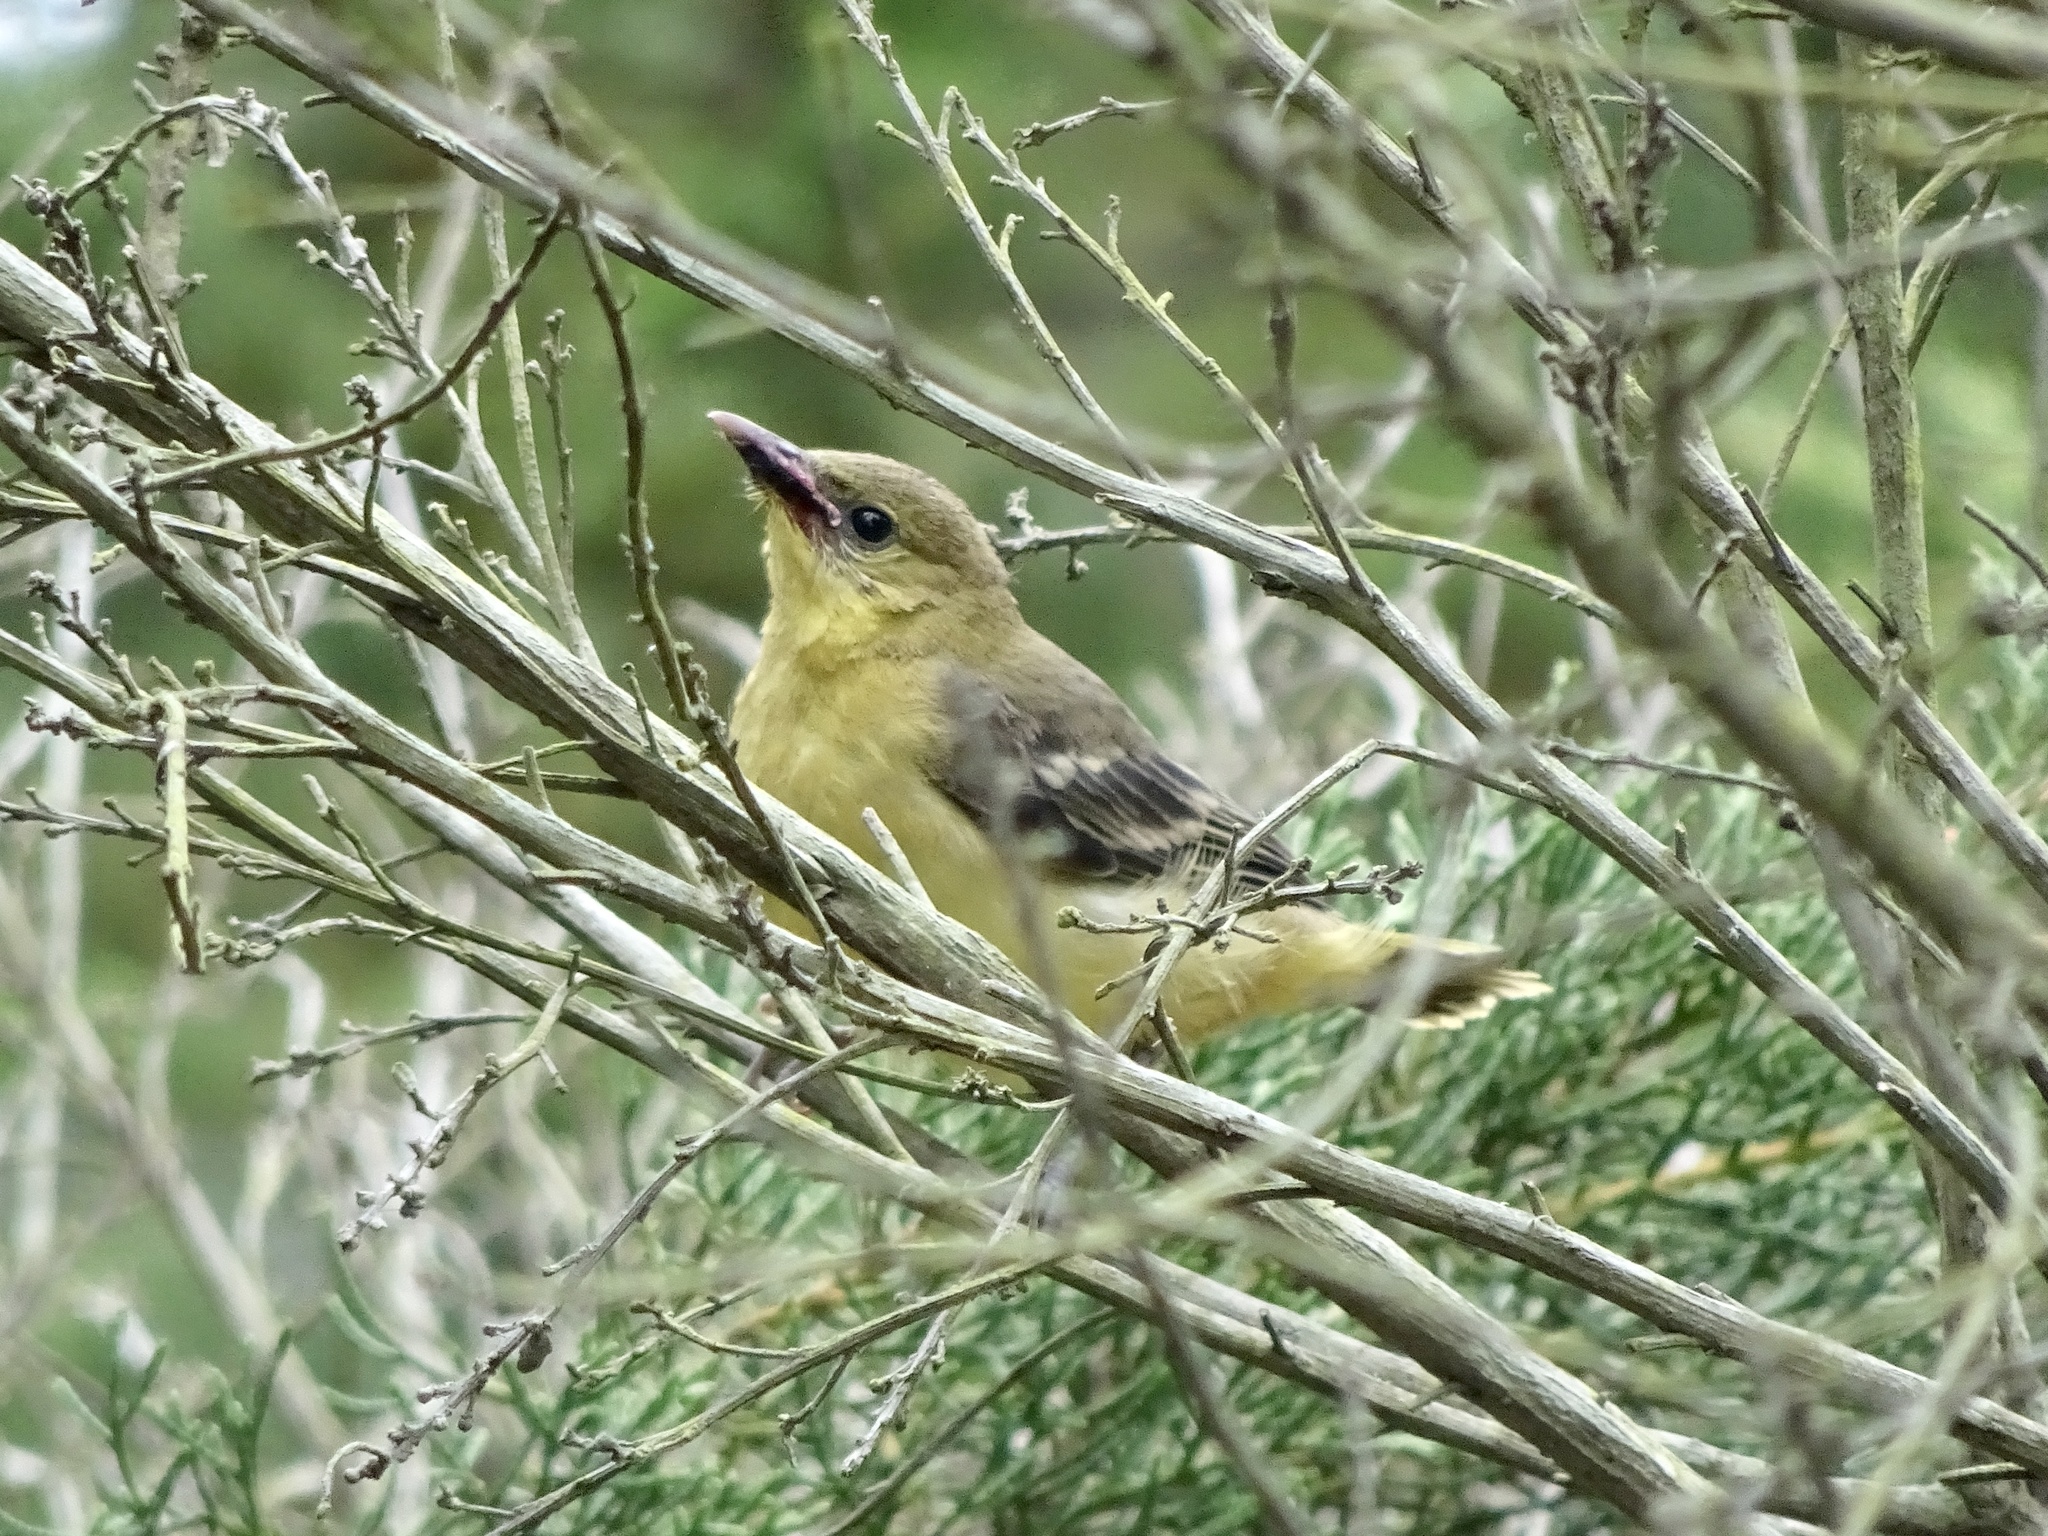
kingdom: Animalia
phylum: Chordata
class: Aves
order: Passeriformes
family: Icteridae
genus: Icterus
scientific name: Icterus cucullatus
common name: Hooded oriole
